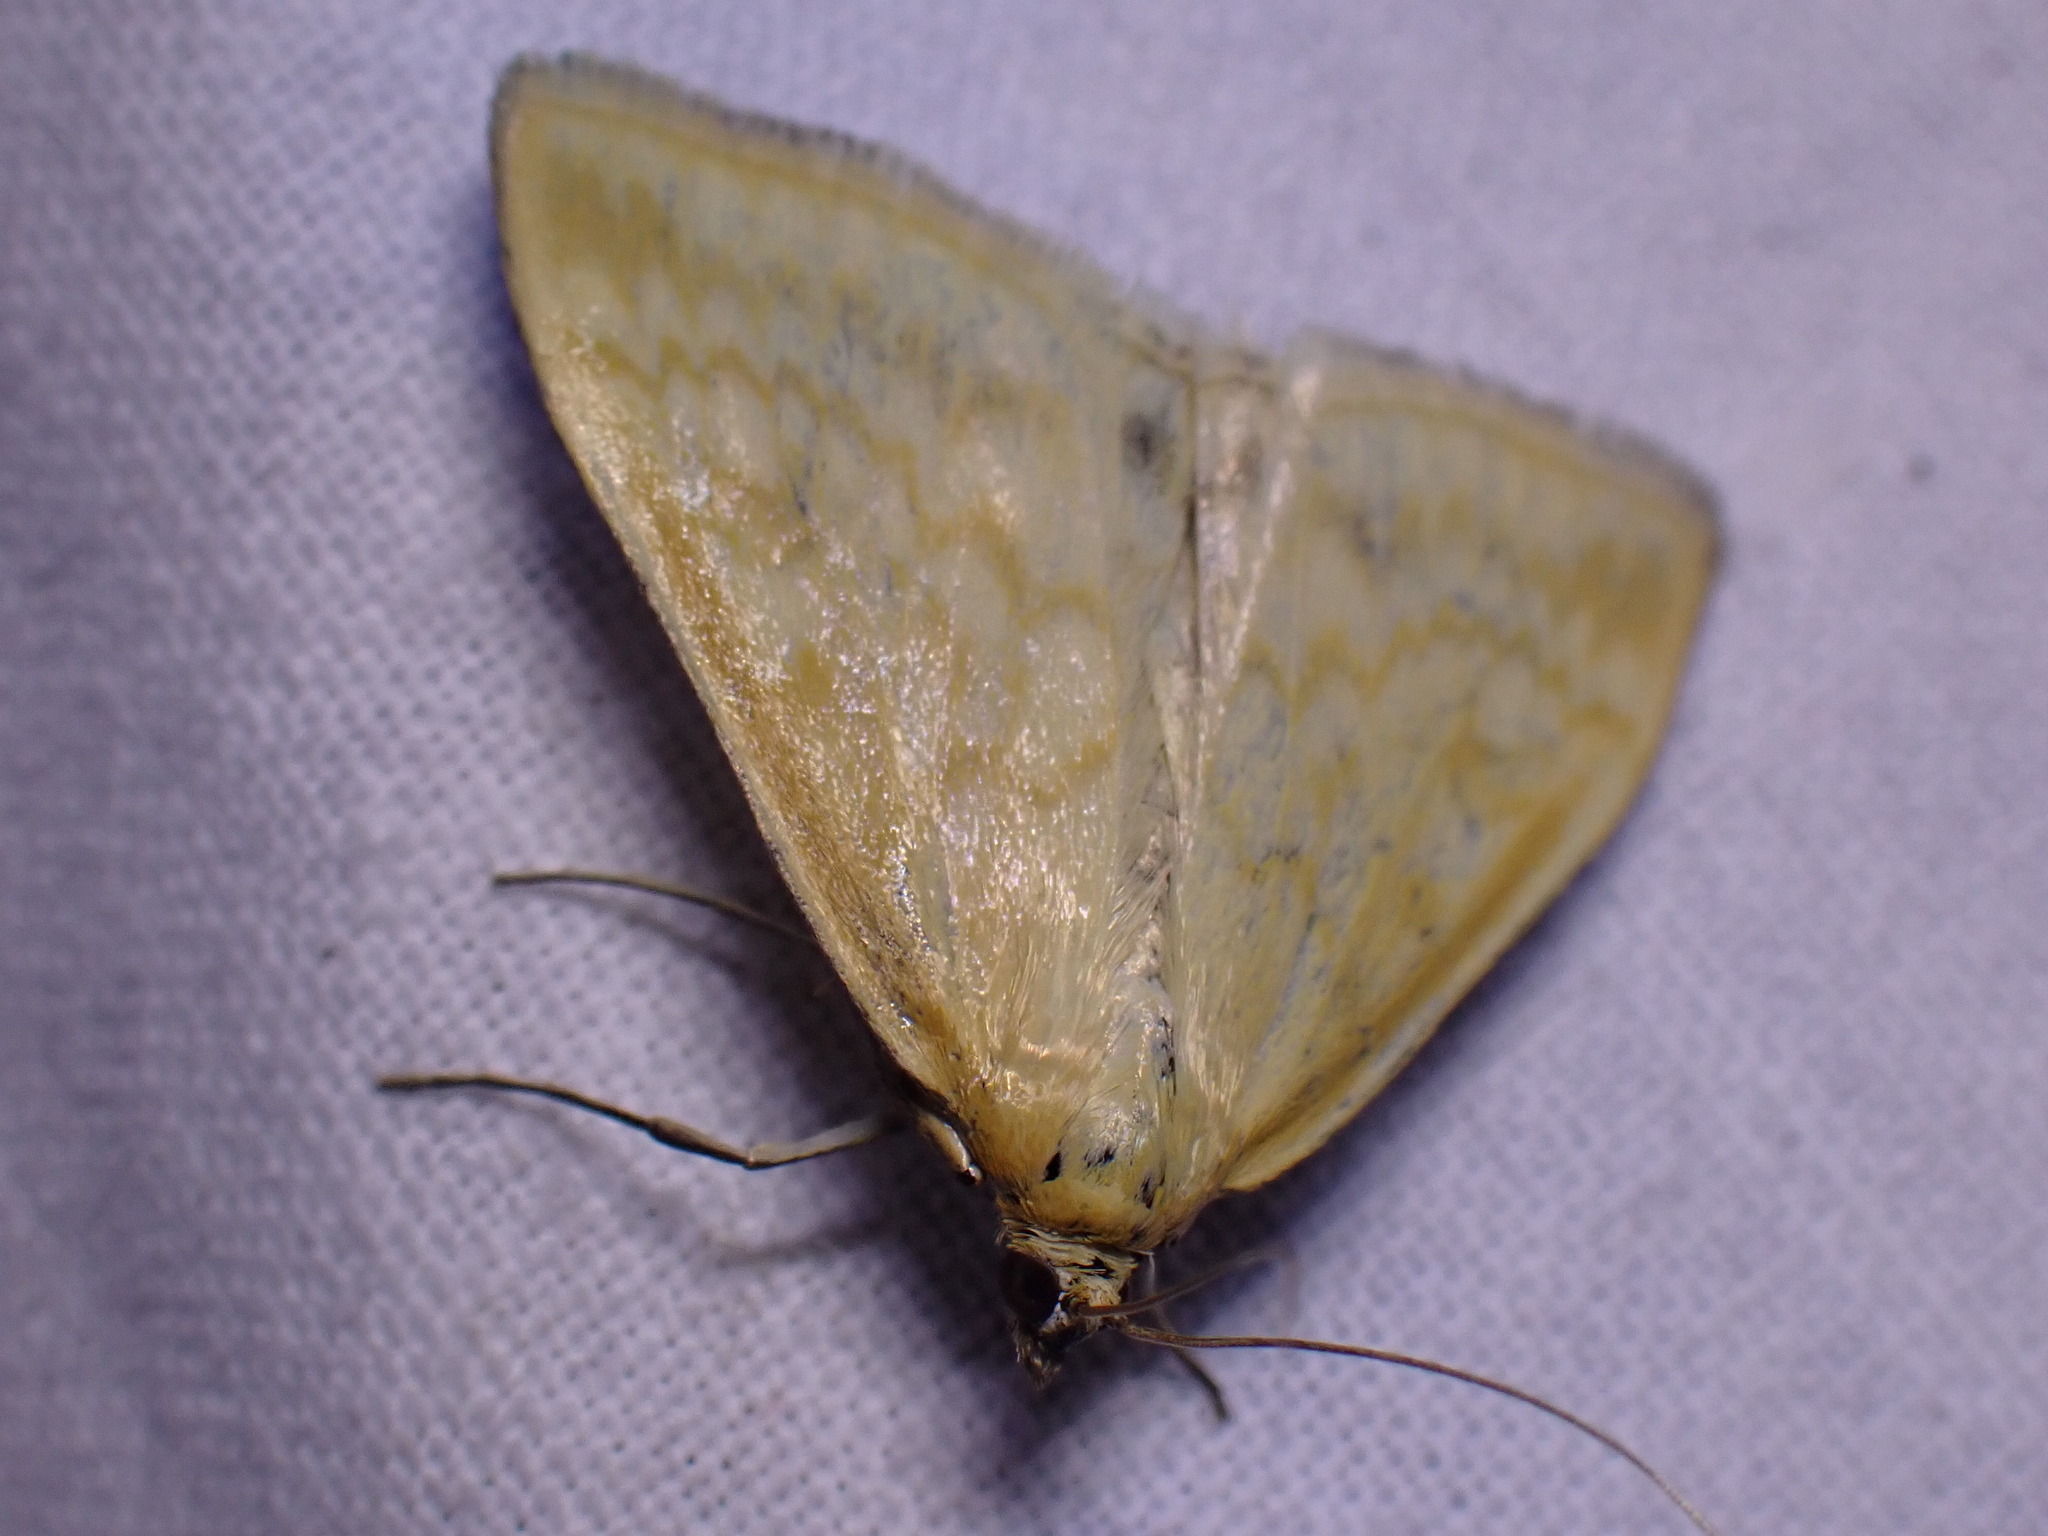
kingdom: Animalia
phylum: Arthropoda
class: Insecta
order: Lepidoptera
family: Crambidae
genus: Sitochroa
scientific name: Sitochroa verticalis
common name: Lesser pearl
